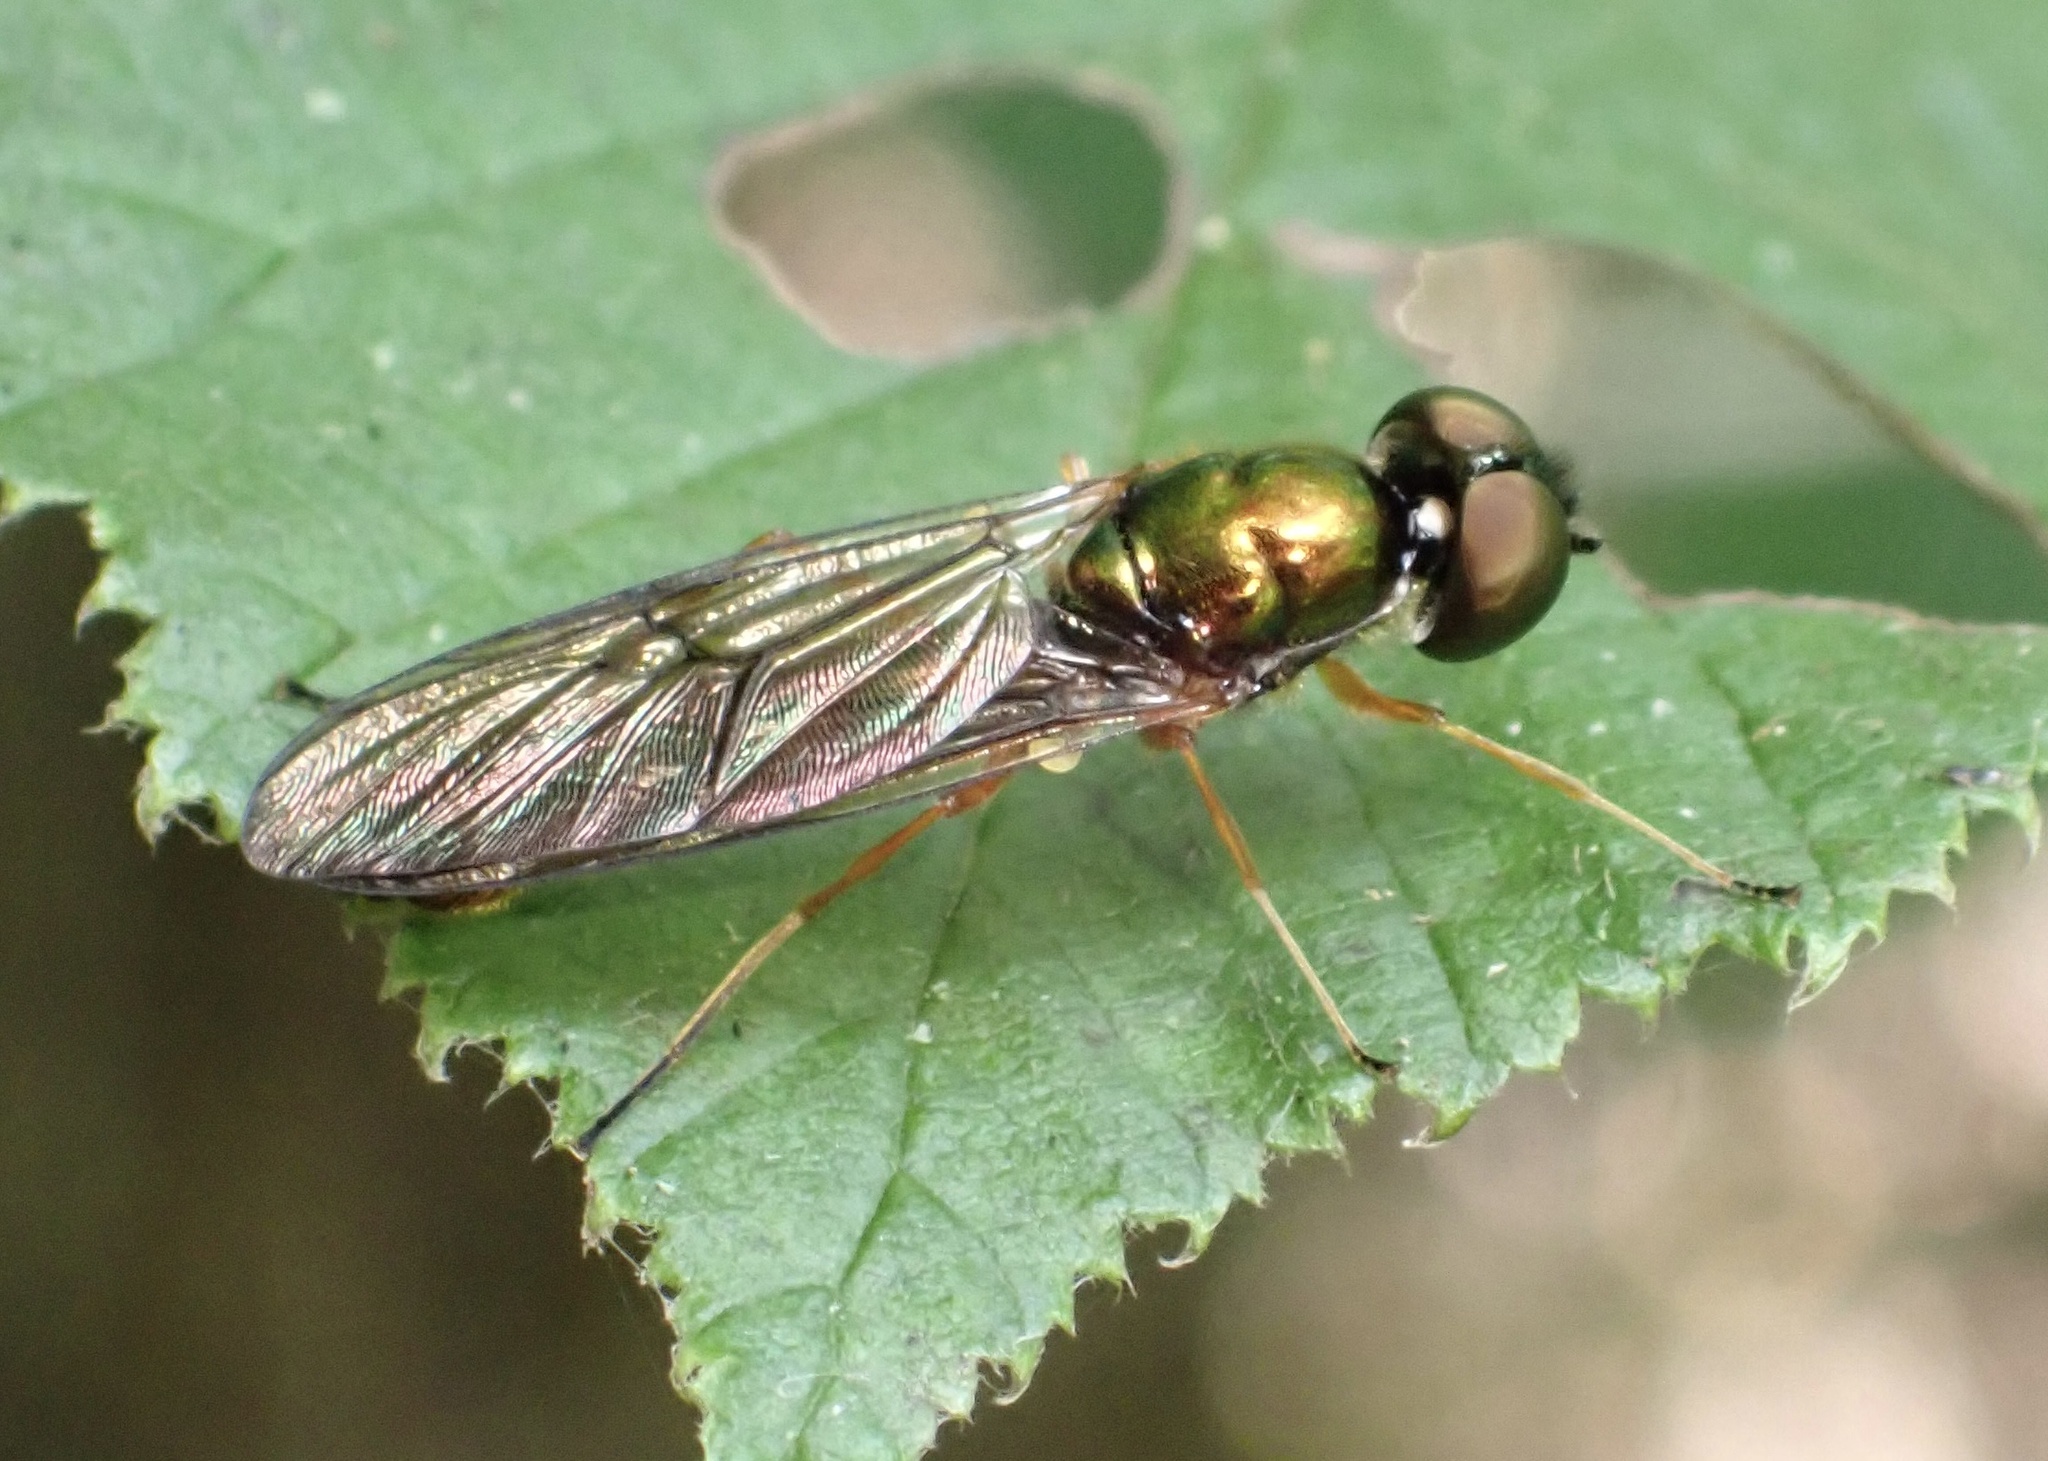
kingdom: Animalia
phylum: Arthropoda
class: Insecta
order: Diptera
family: Stratiomyidae
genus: Sargus
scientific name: Sargus bipunctatus
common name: Twin-spot centurion
